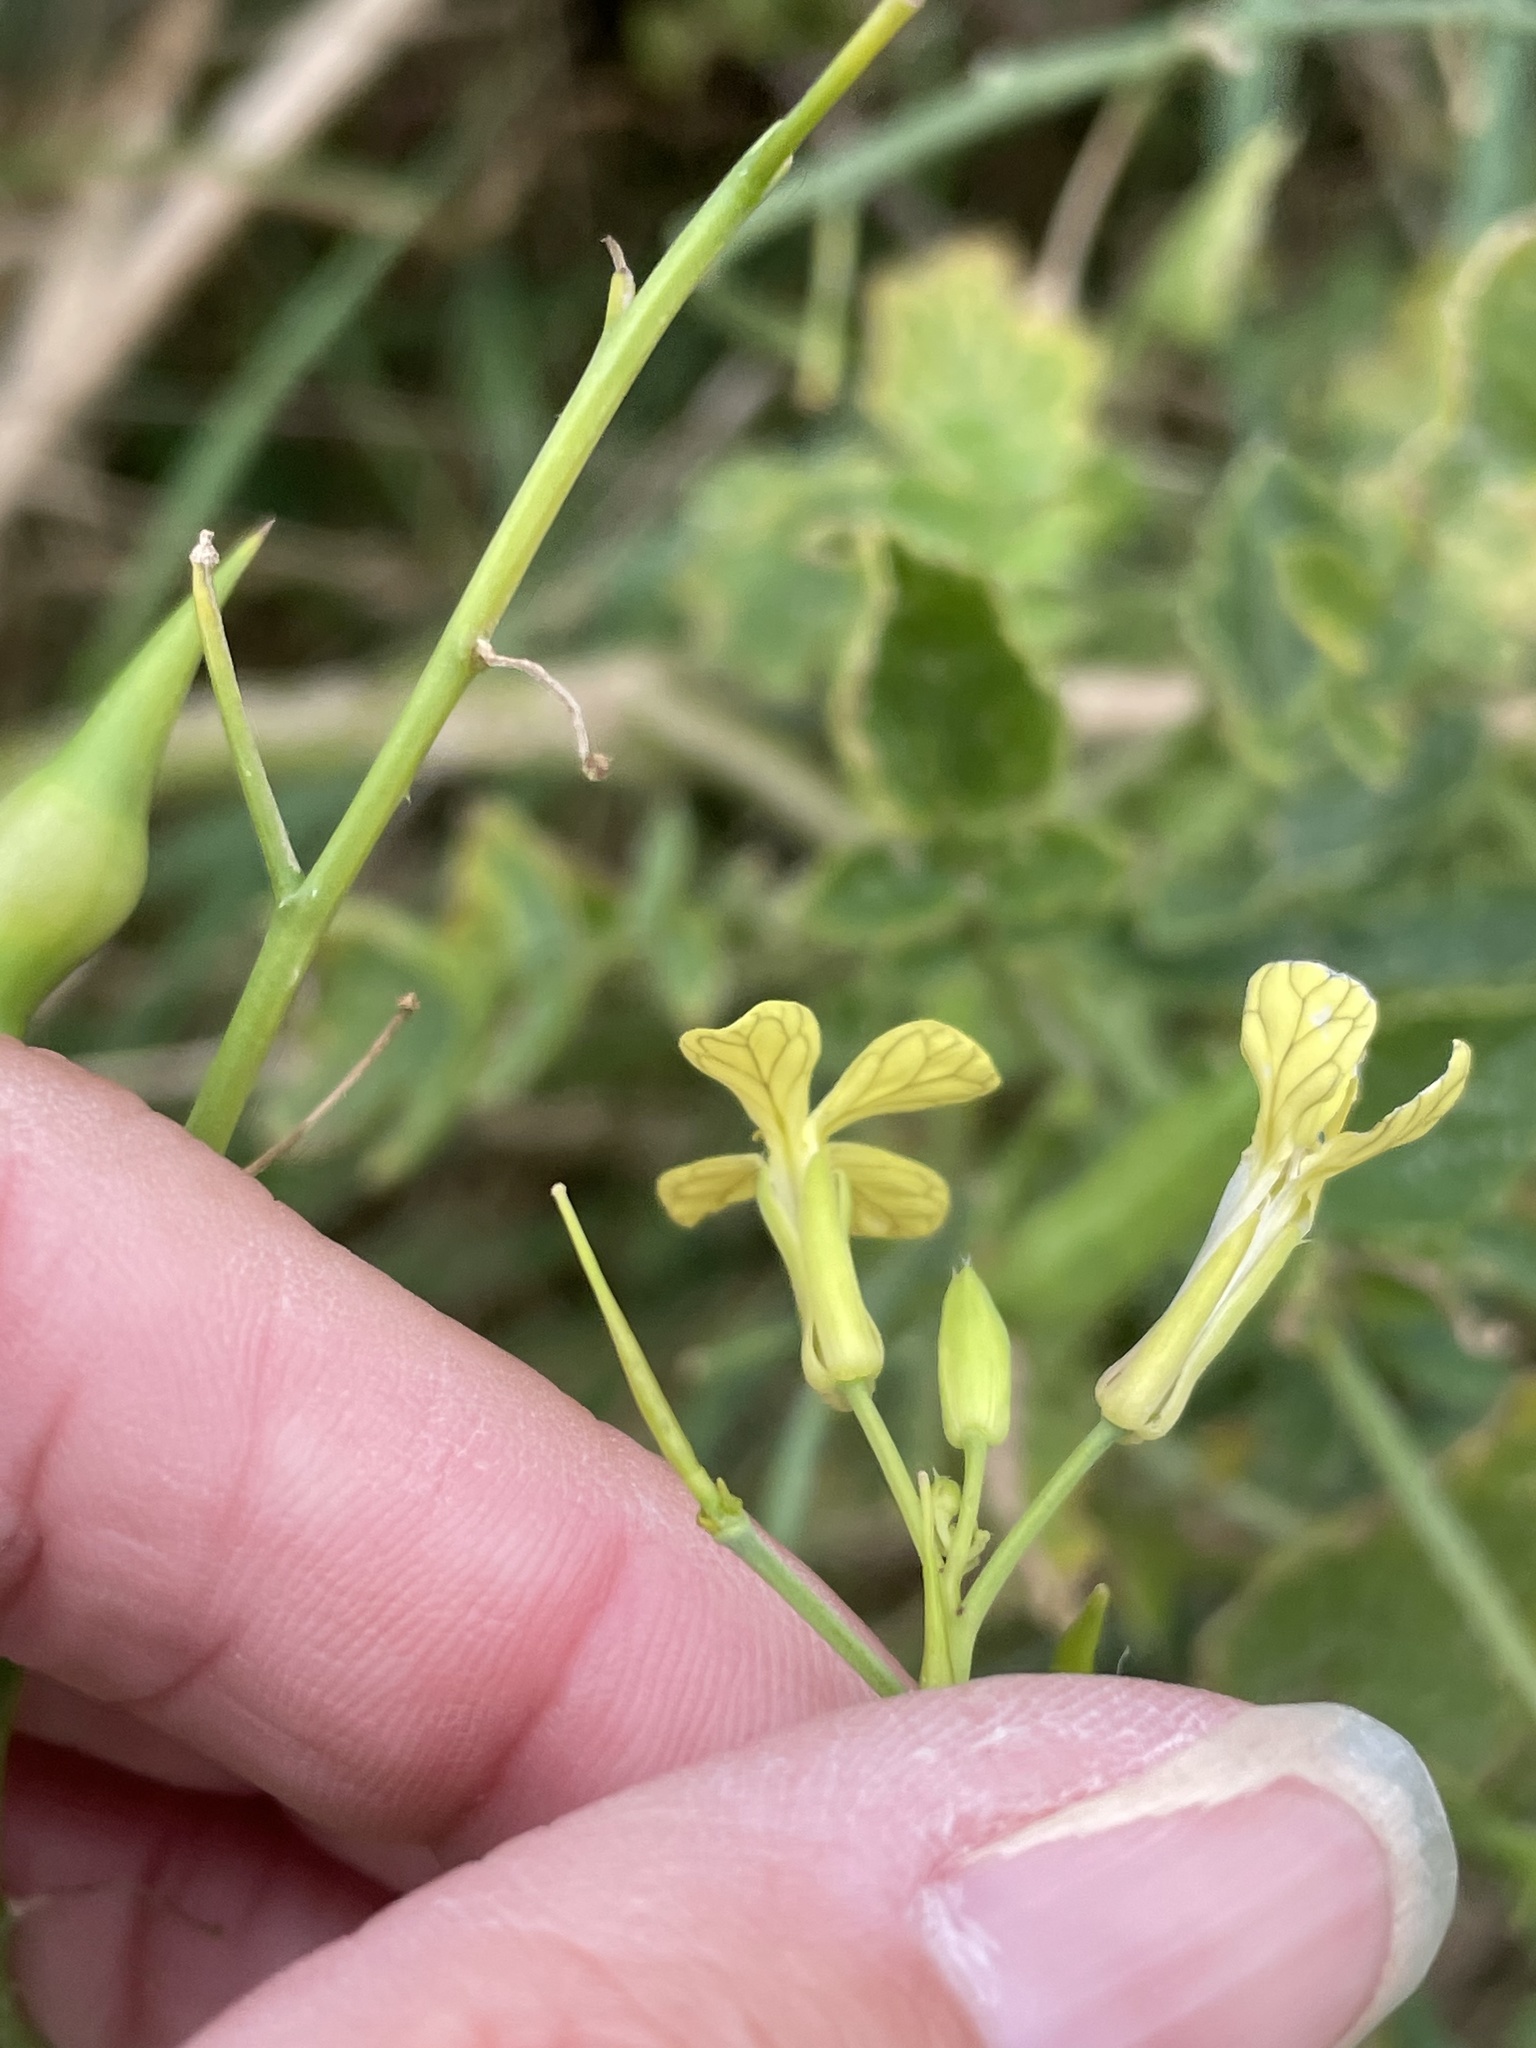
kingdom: Plantae
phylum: Tracheophyta
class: Magnoliopsida
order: Brassicales
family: Brassicaceae
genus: Raphanus
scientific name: Raphanus raphanistrum
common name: Wild radish
